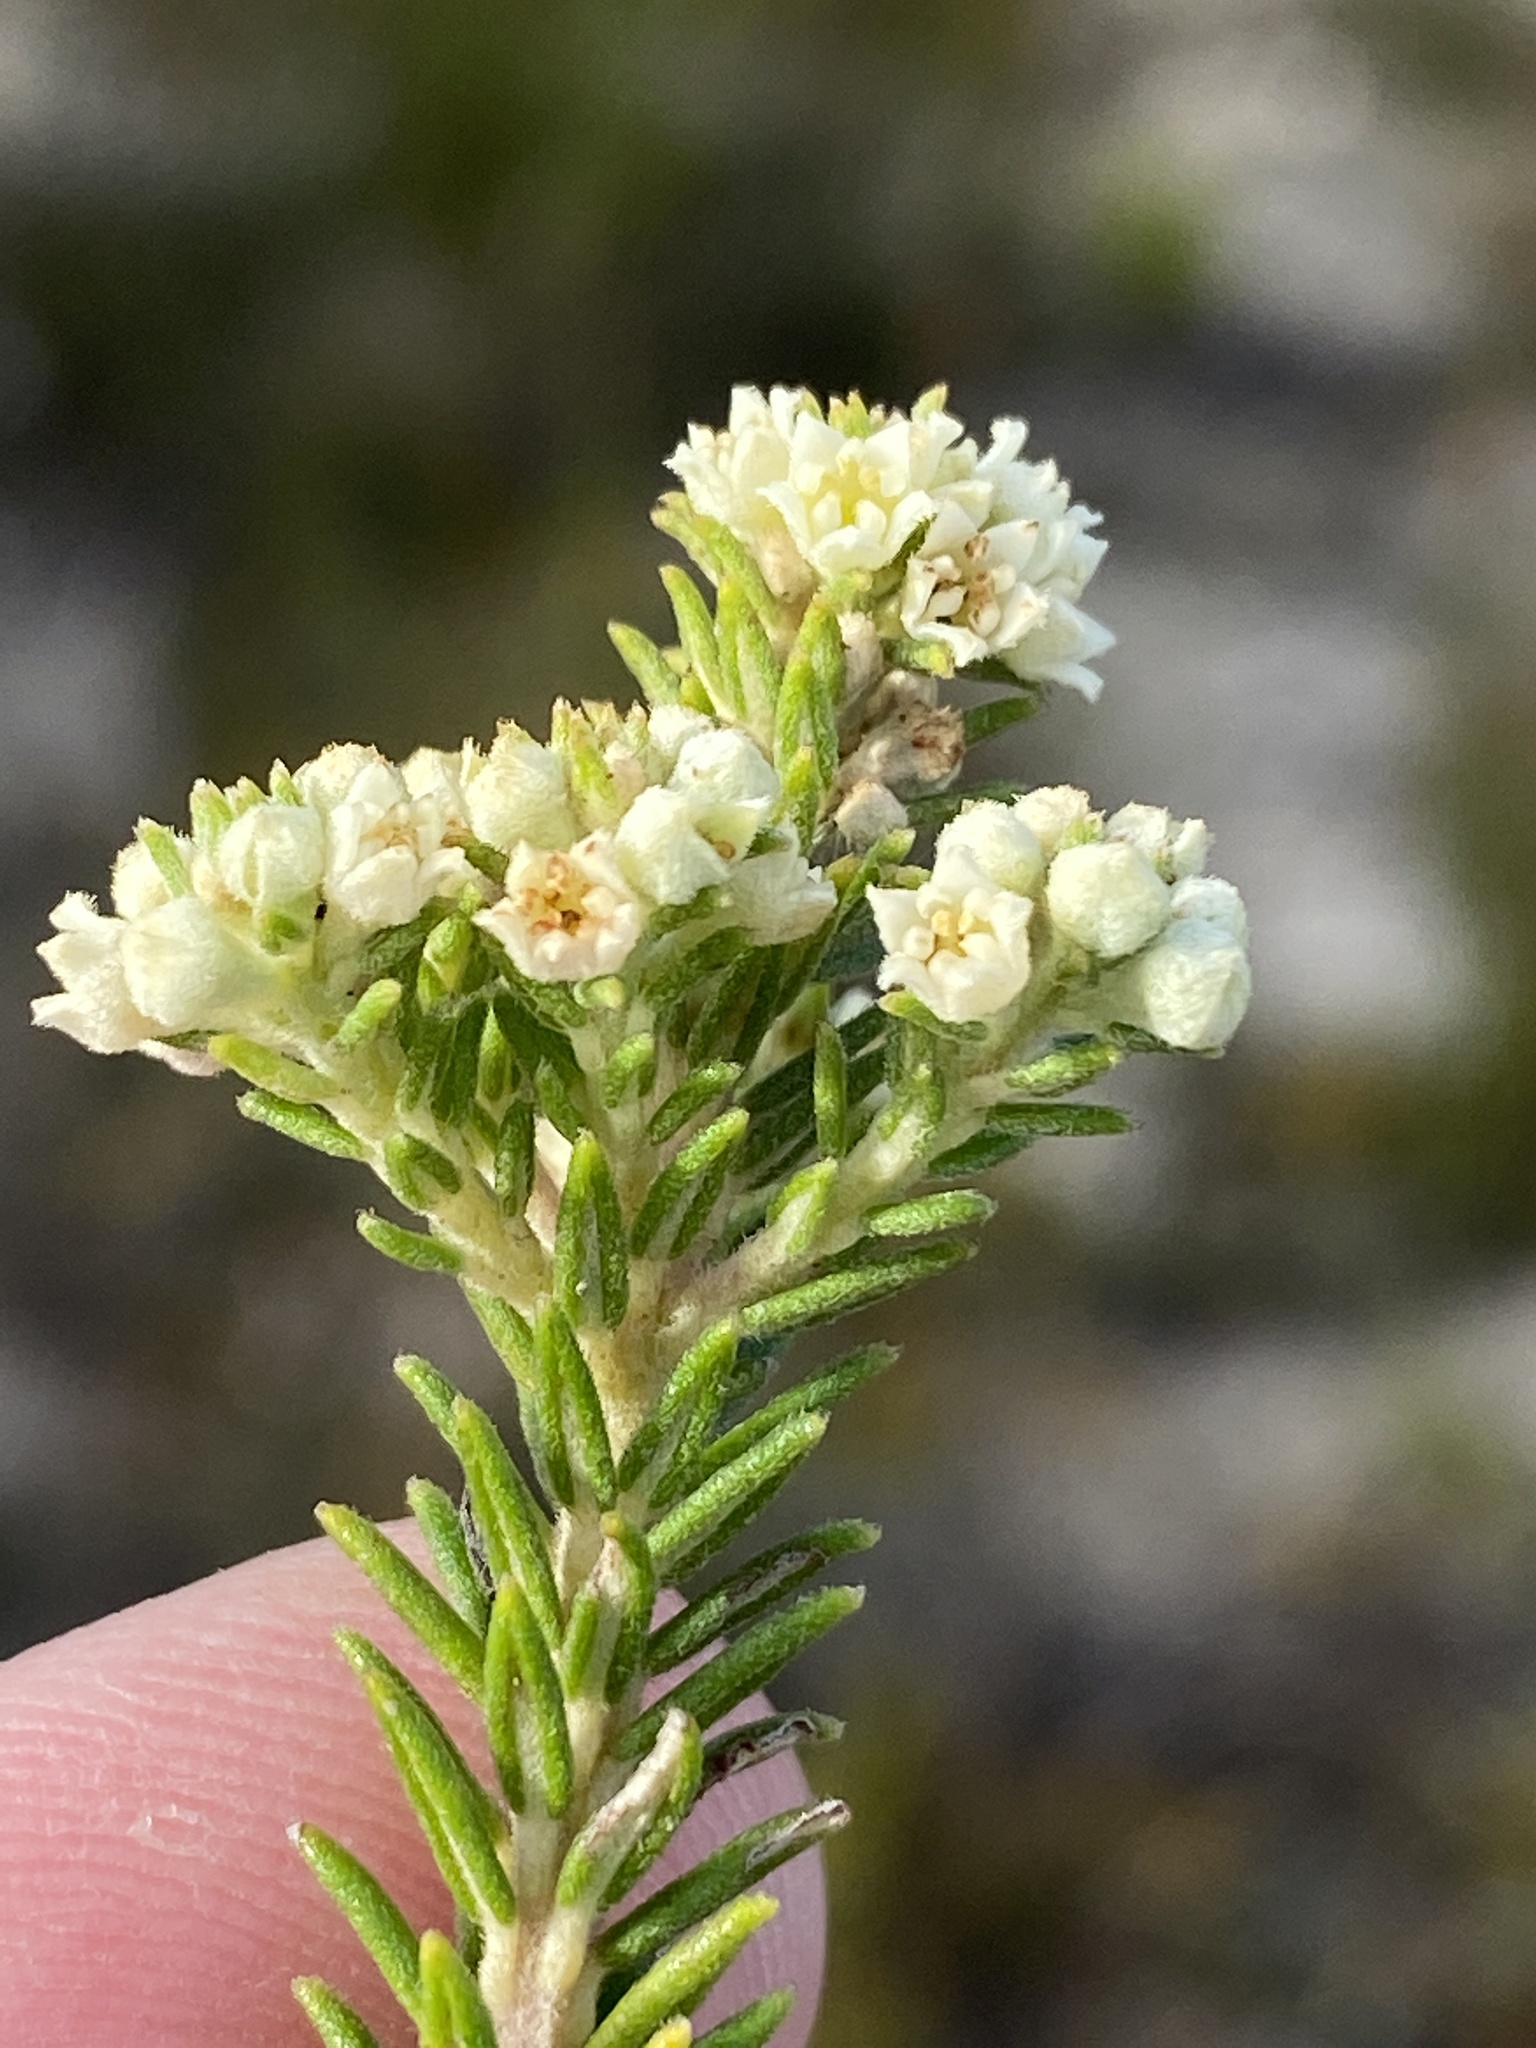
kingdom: Plantae
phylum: Tracheophyta
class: Magnoliopsida
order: Rosales
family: Rhamnaceae
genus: Phylica
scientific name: Phylica axillaris
